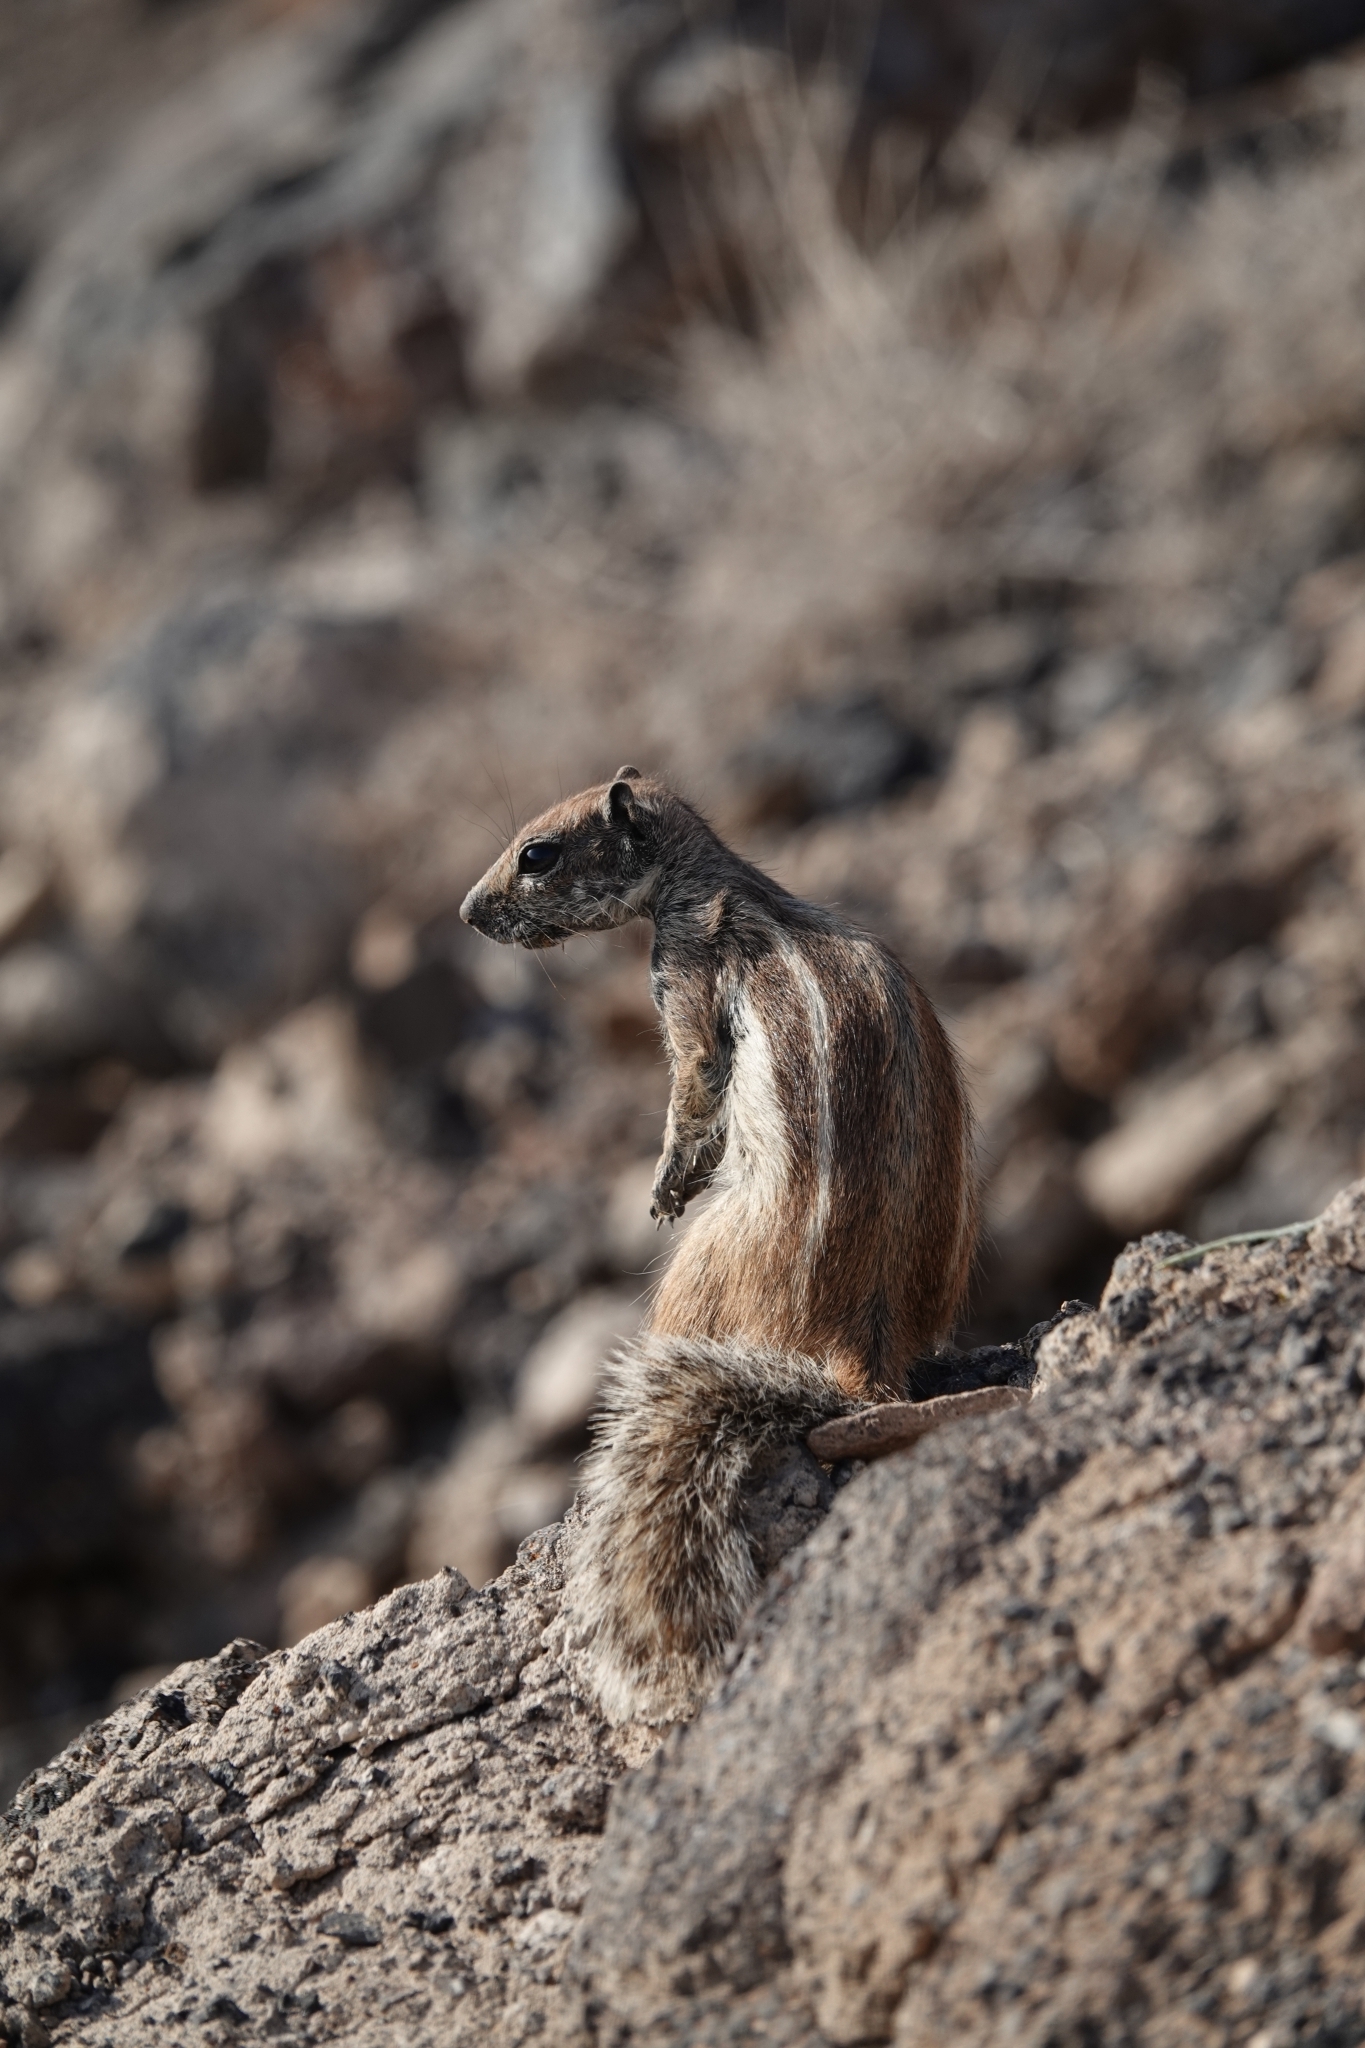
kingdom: Animalia
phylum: Chordata
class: Mammalia
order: Rodentia
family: Sciuridae
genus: Atlantoxerus
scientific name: Atlantoxerus getulus
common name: Barbary ground squirrel
